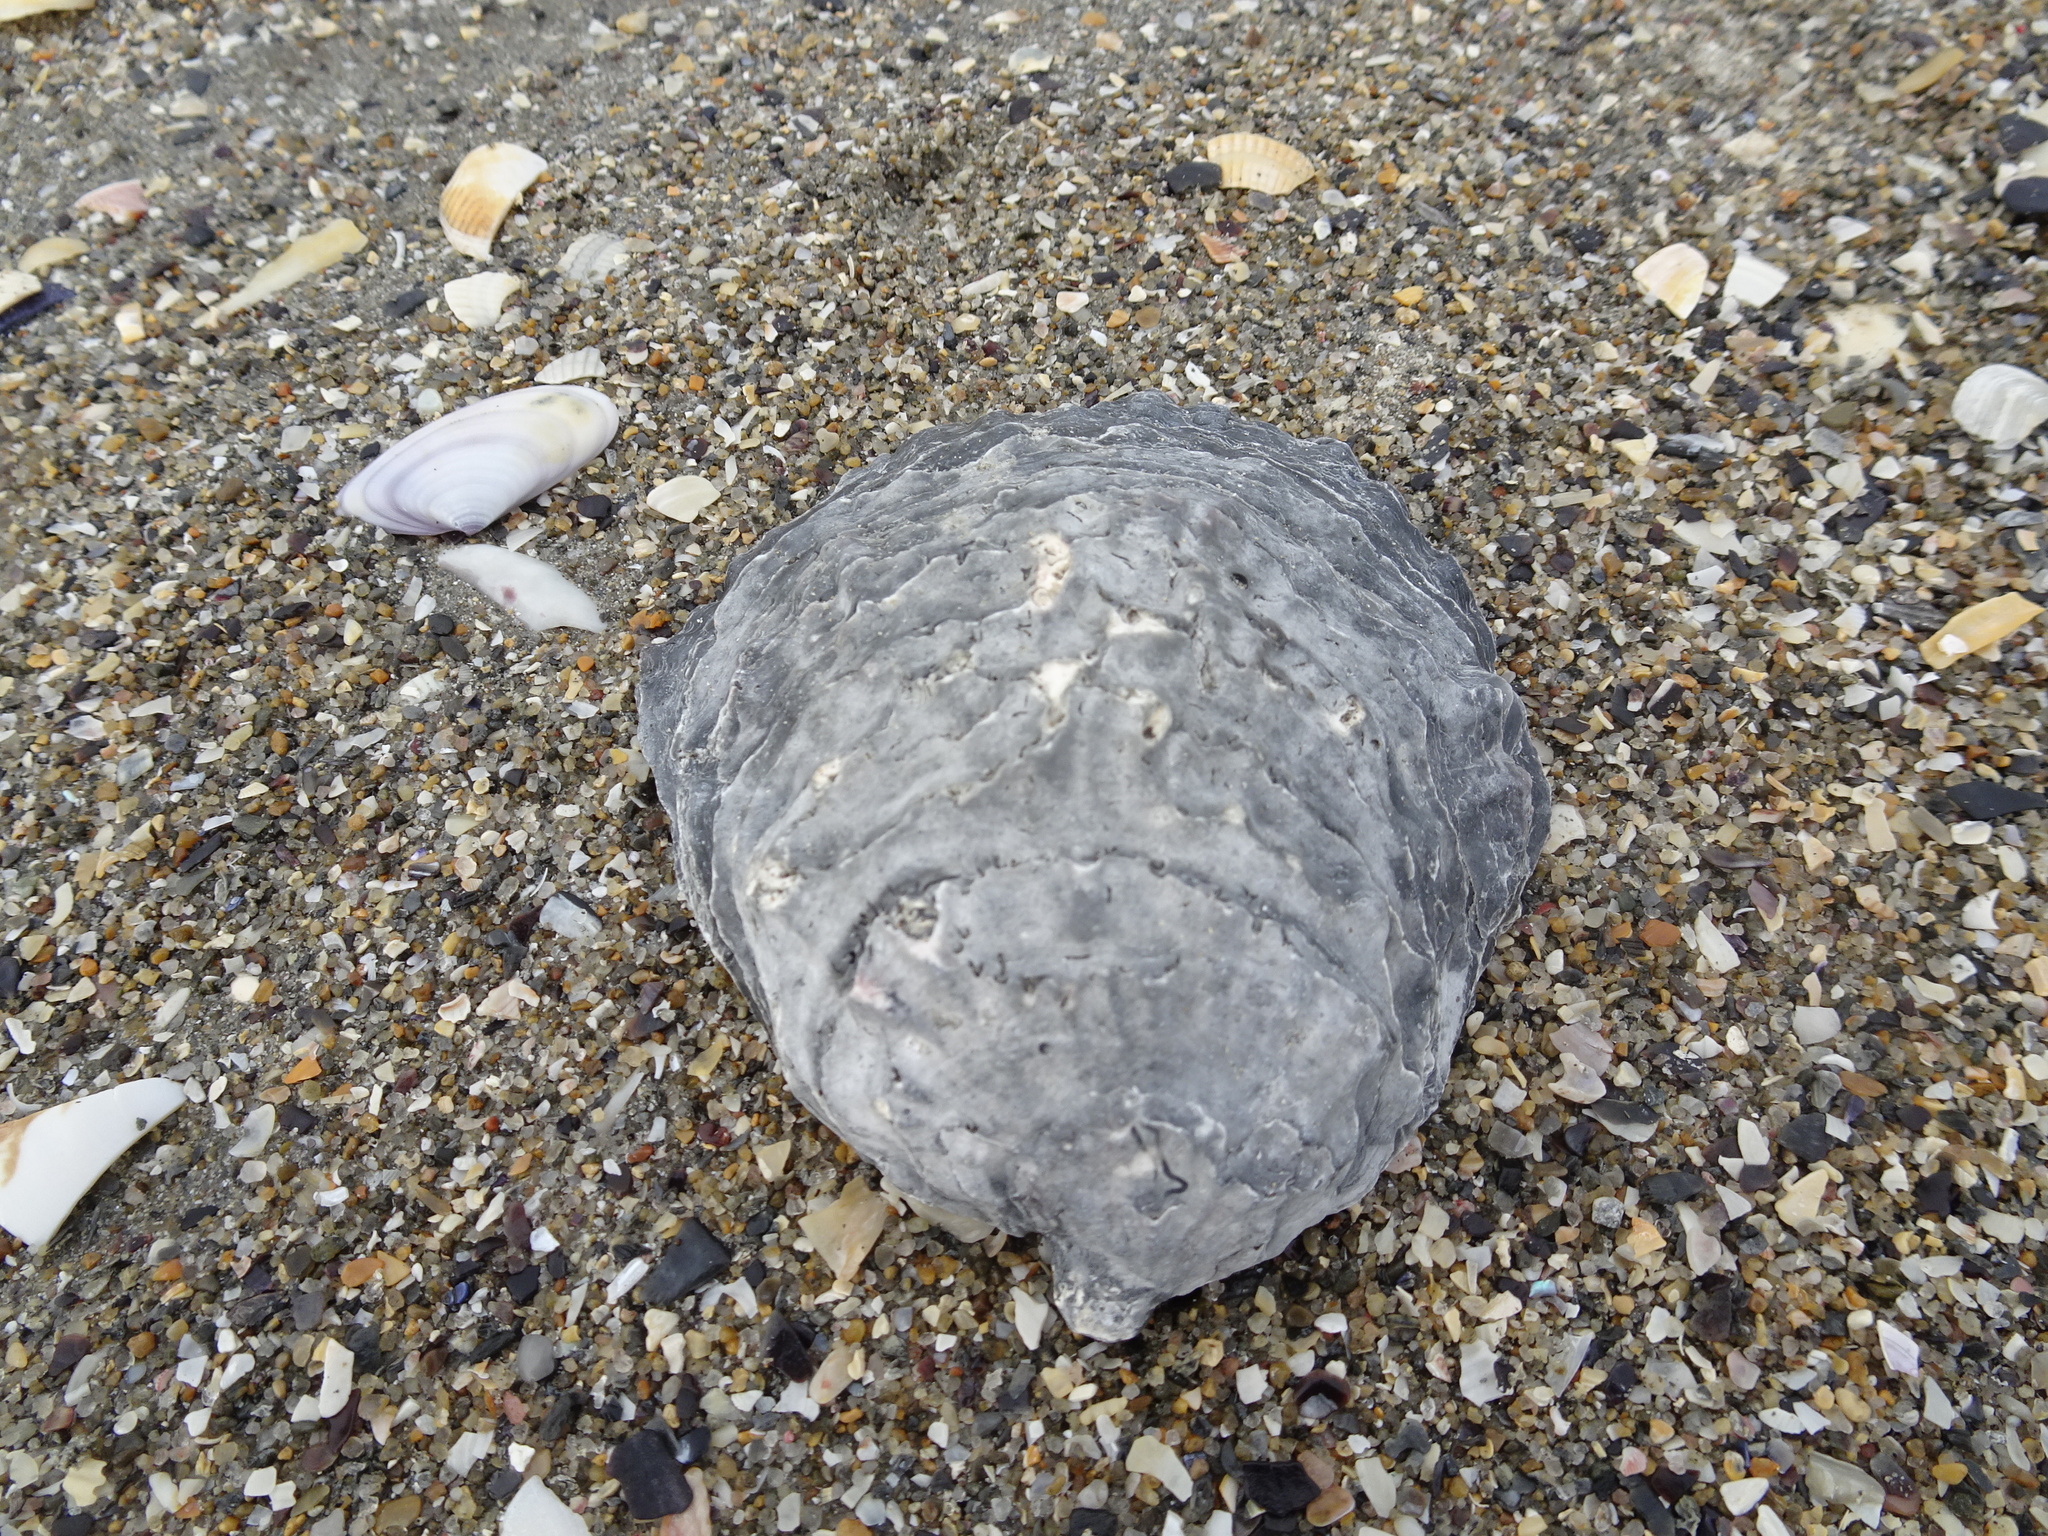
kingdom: Animalia
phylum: Mollusca
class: Bivalvia
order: Ostreida
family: Ostreidae
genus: Ostrea
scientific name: Ostrea edulis
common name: Flat oyster
